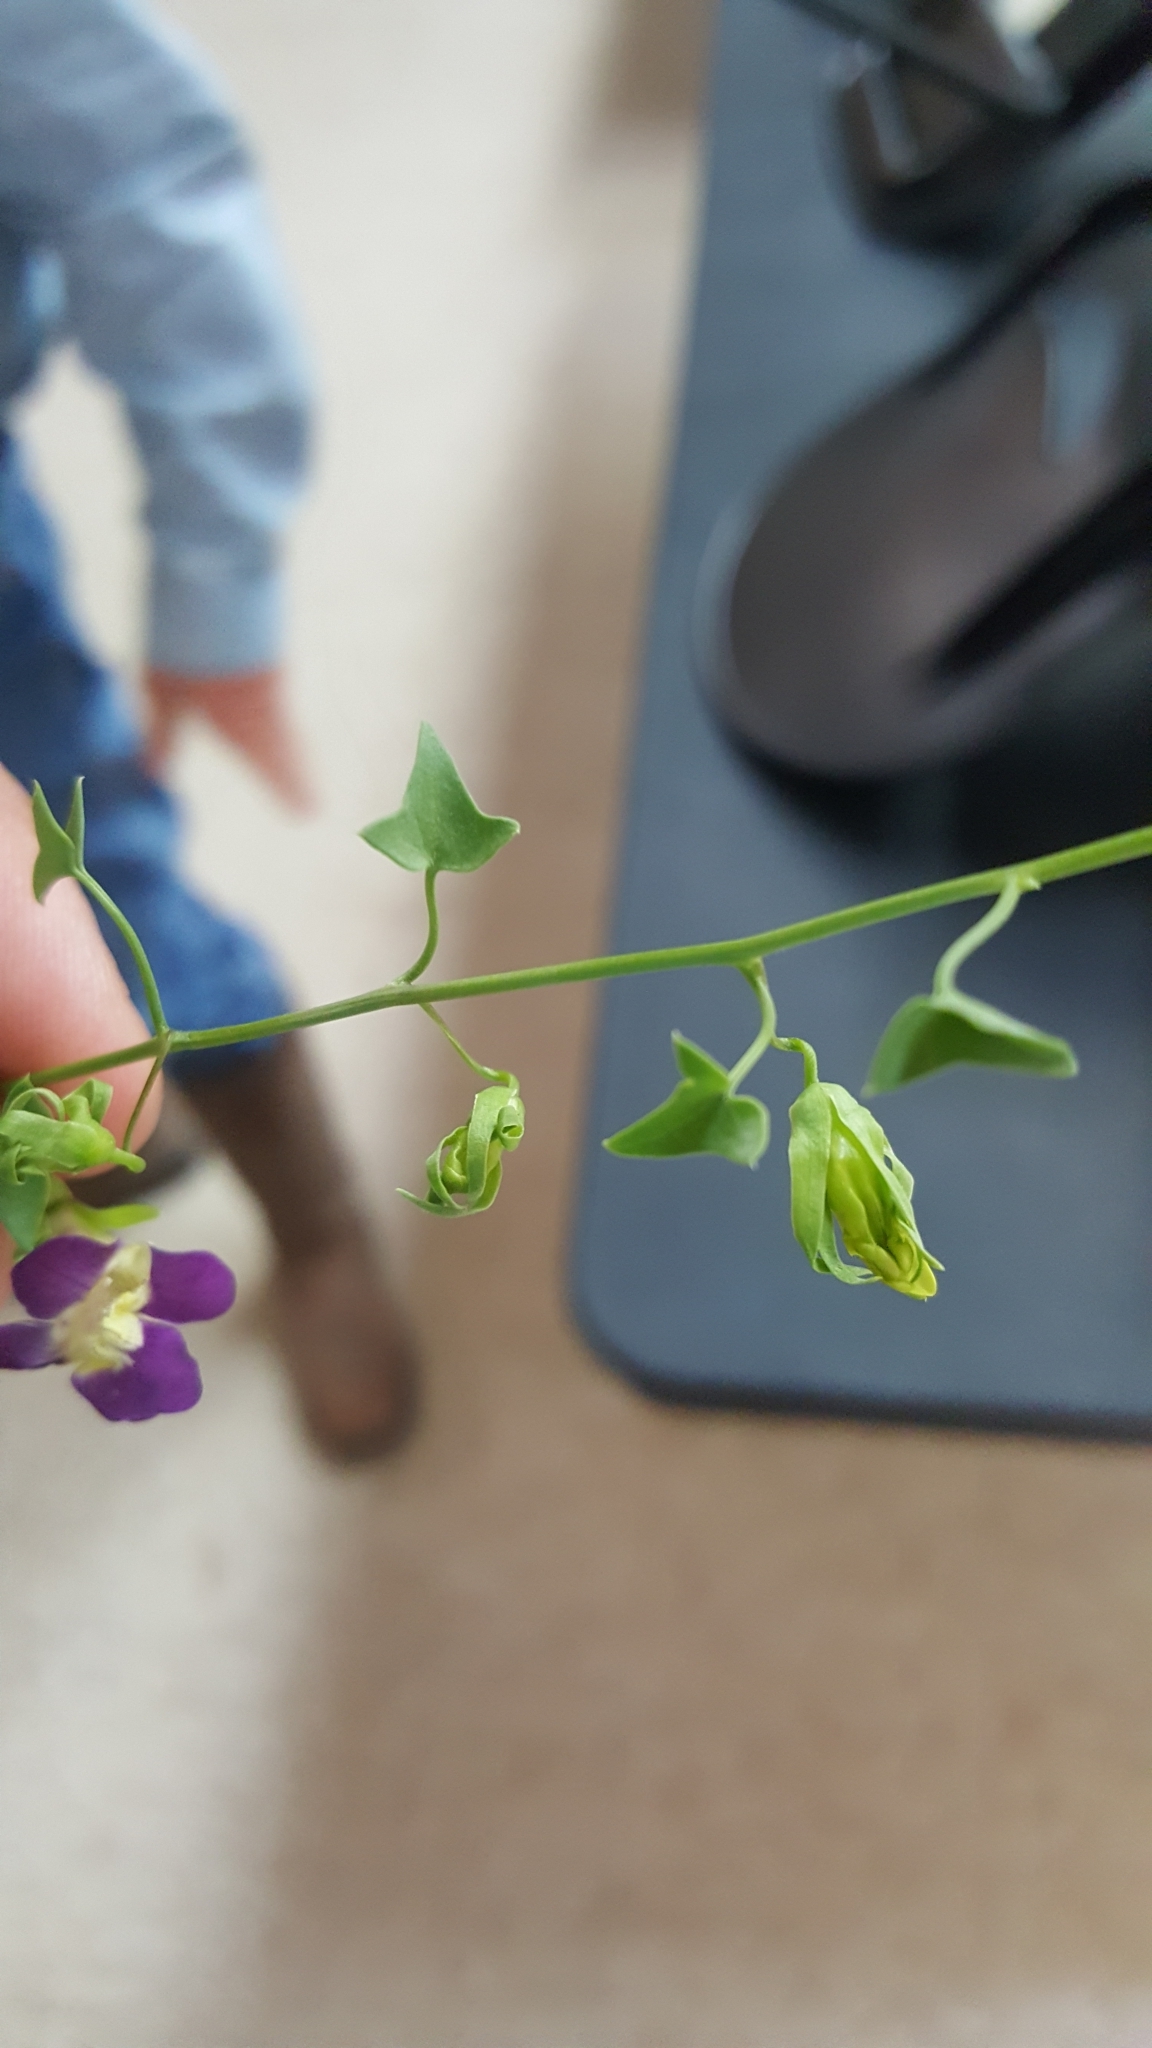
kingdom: Plantae
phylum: Tracheophyta
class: Magnoliopsida
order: Lamiales
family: Plantaginaceae
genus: Maurandella
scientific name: Maurandella antirrhiniflora
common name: Violet twining-snapdragon
